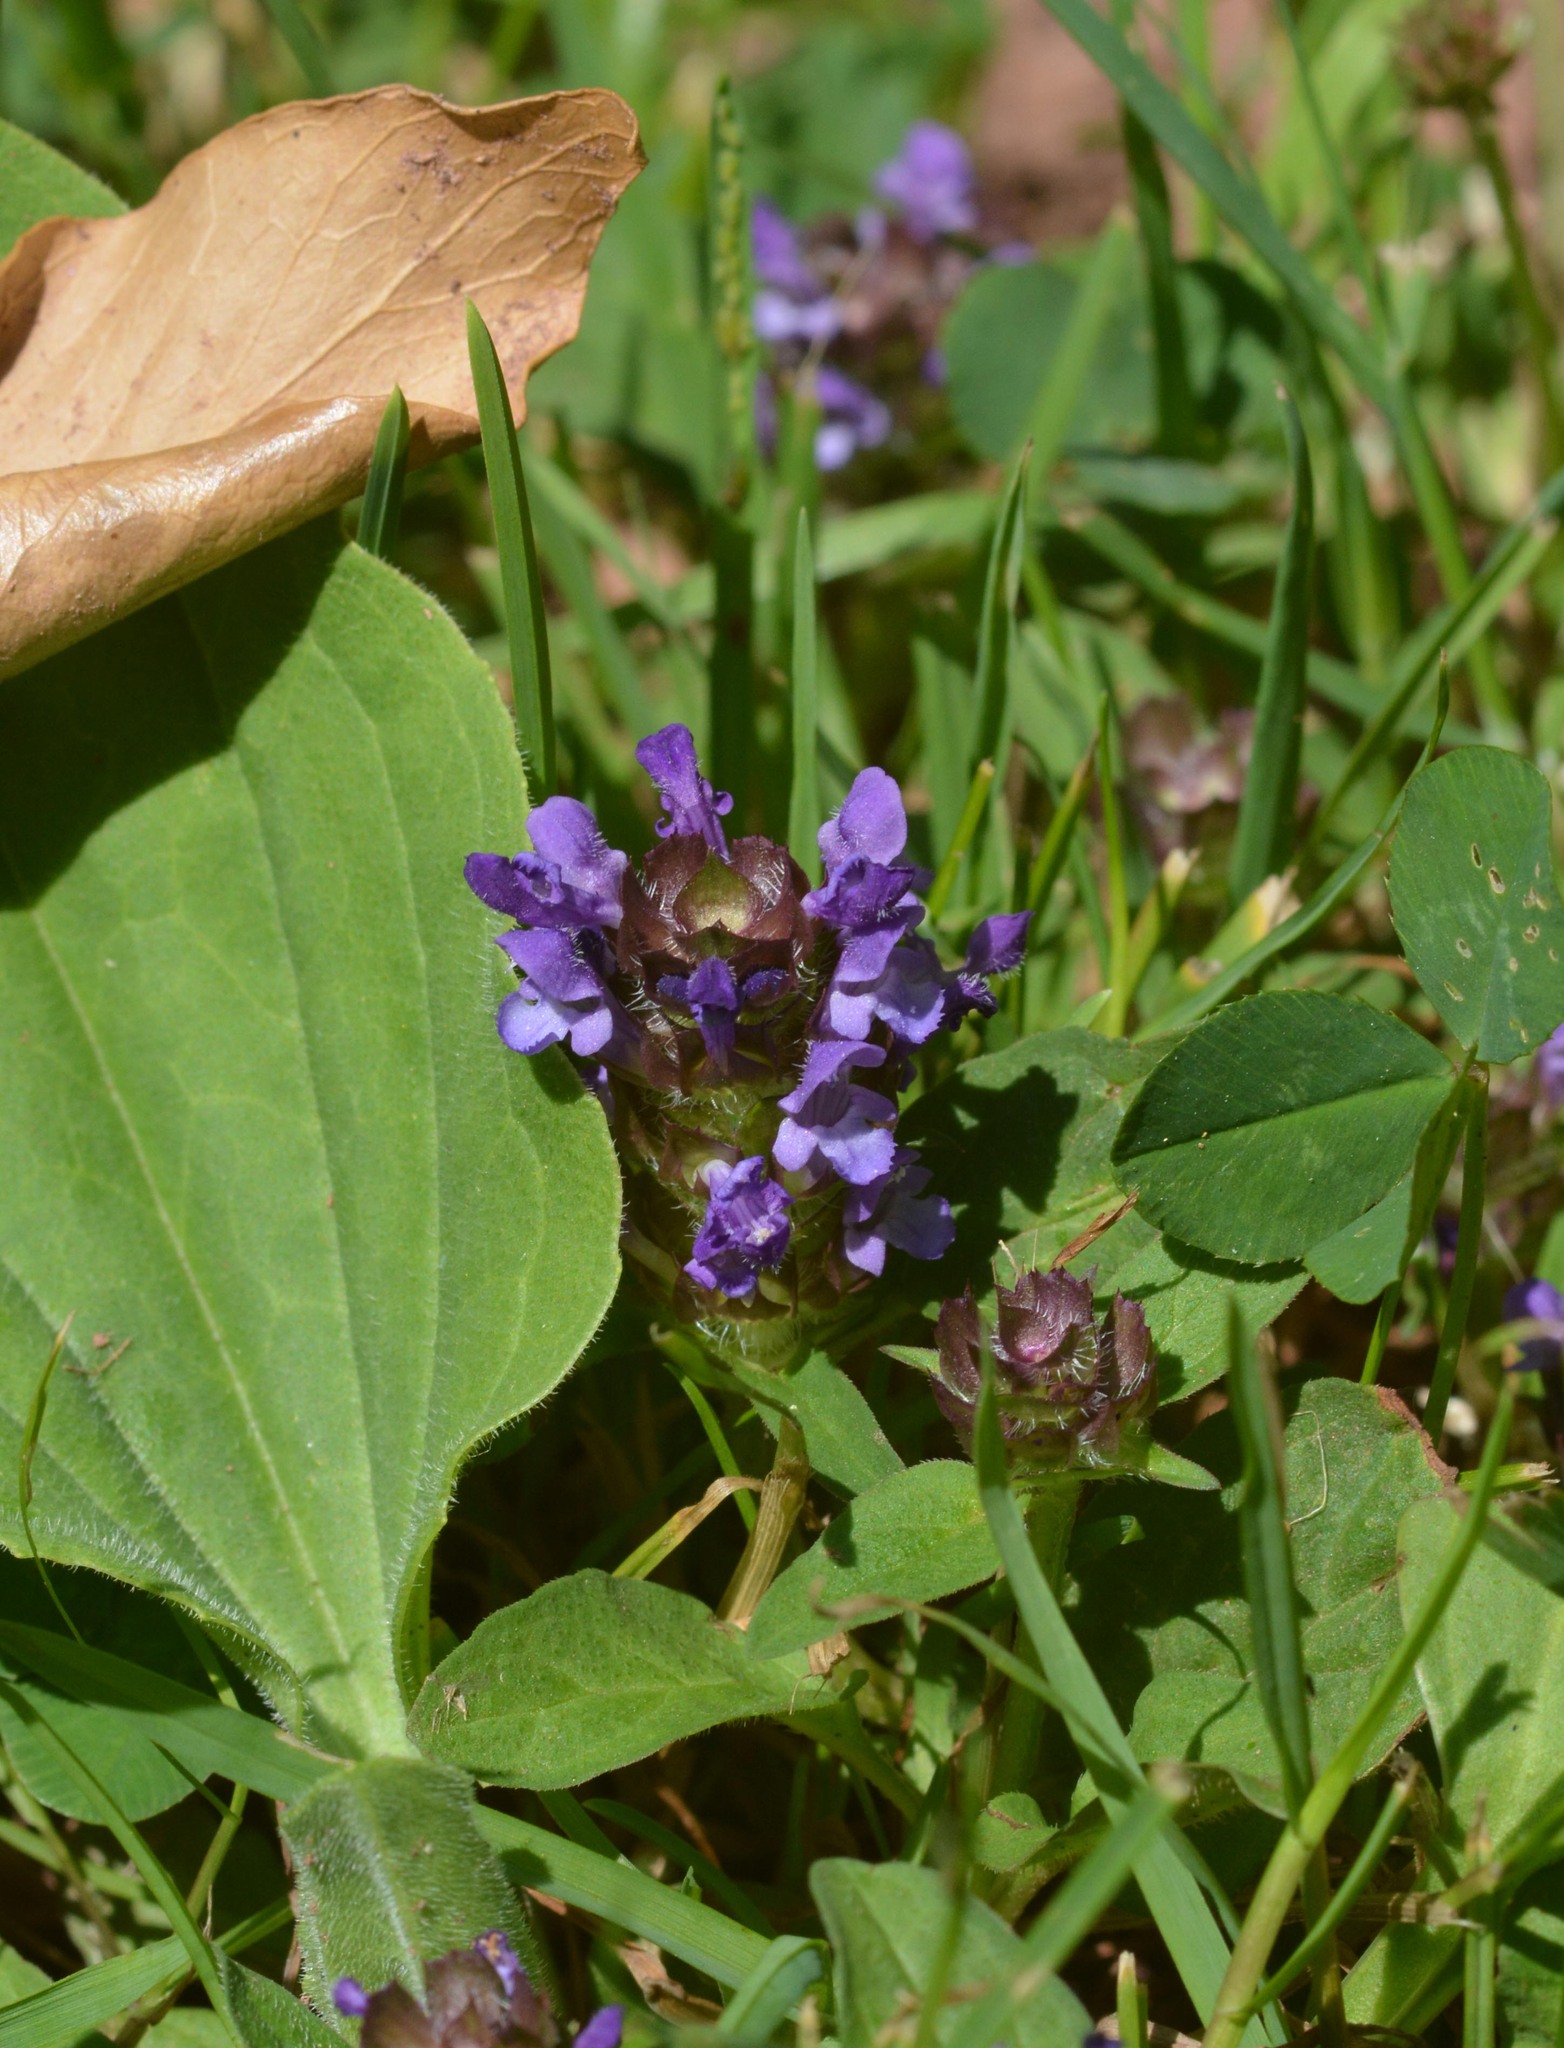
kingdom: Plantae
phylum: Tracheophyta
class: Magnoliopsida
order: Lamiales
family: Lamiaceae
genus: Prunella
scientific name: Prunella vulgaris
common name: Heal-all
